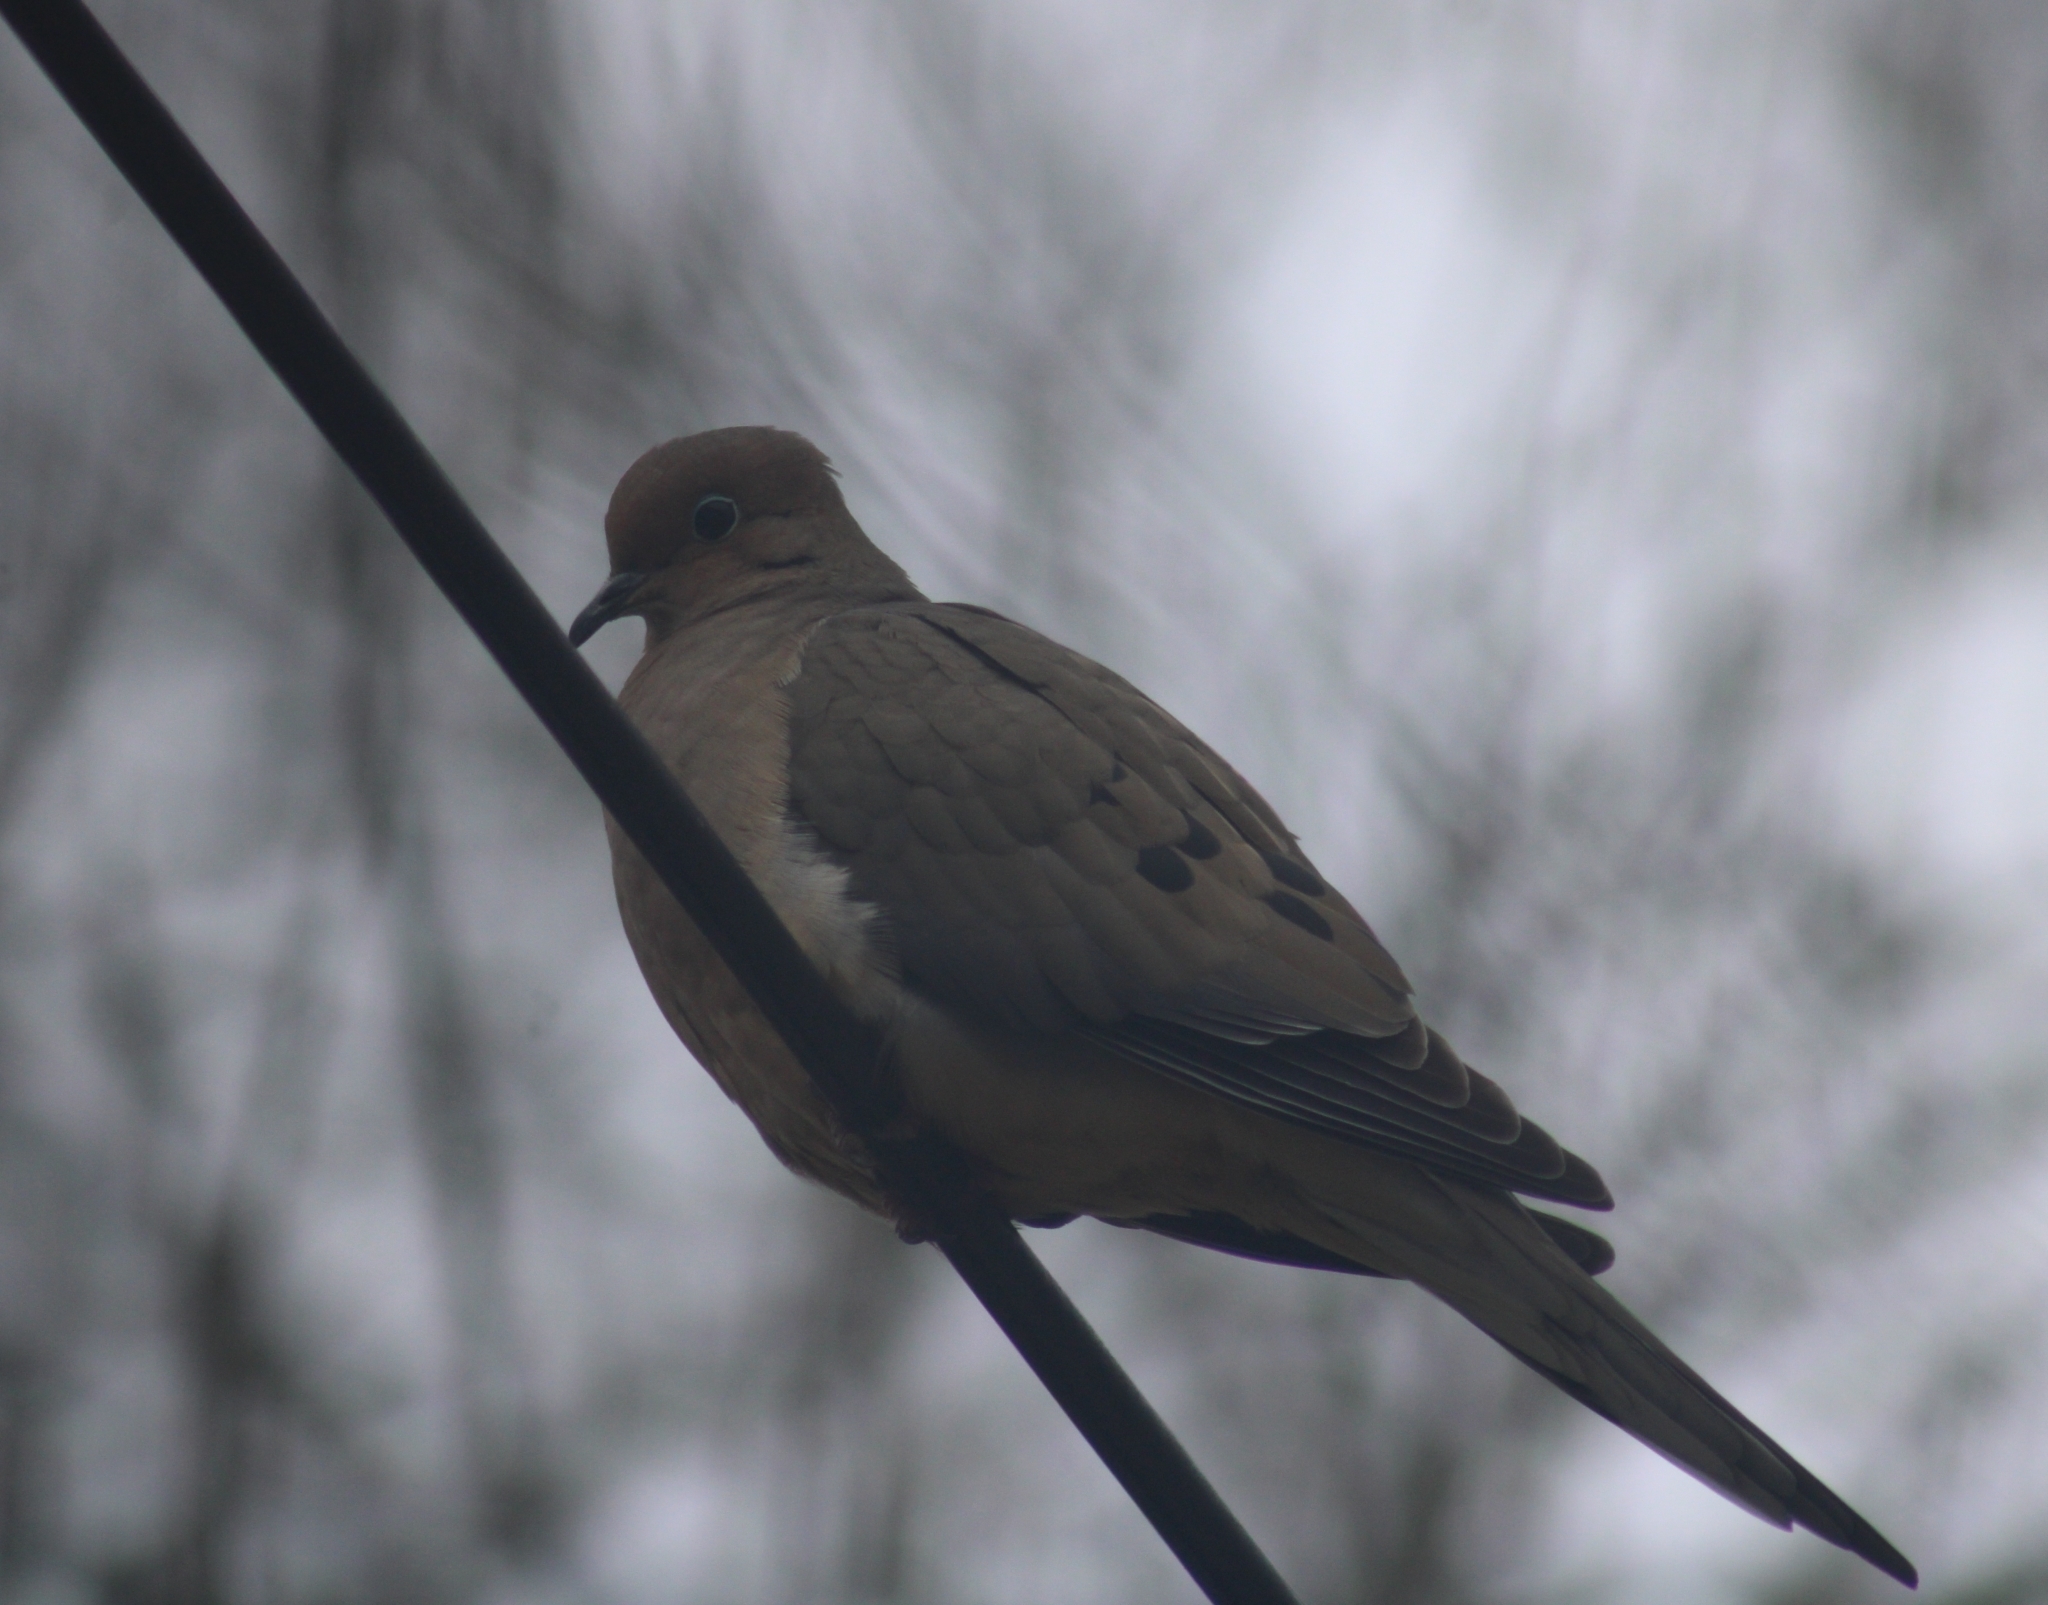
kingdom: Animalia
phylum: Chordata
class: Aves
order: Columbiformes
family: Columbidae
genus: Zenaida
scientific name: Zenaida macroura
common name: Mourning dove
